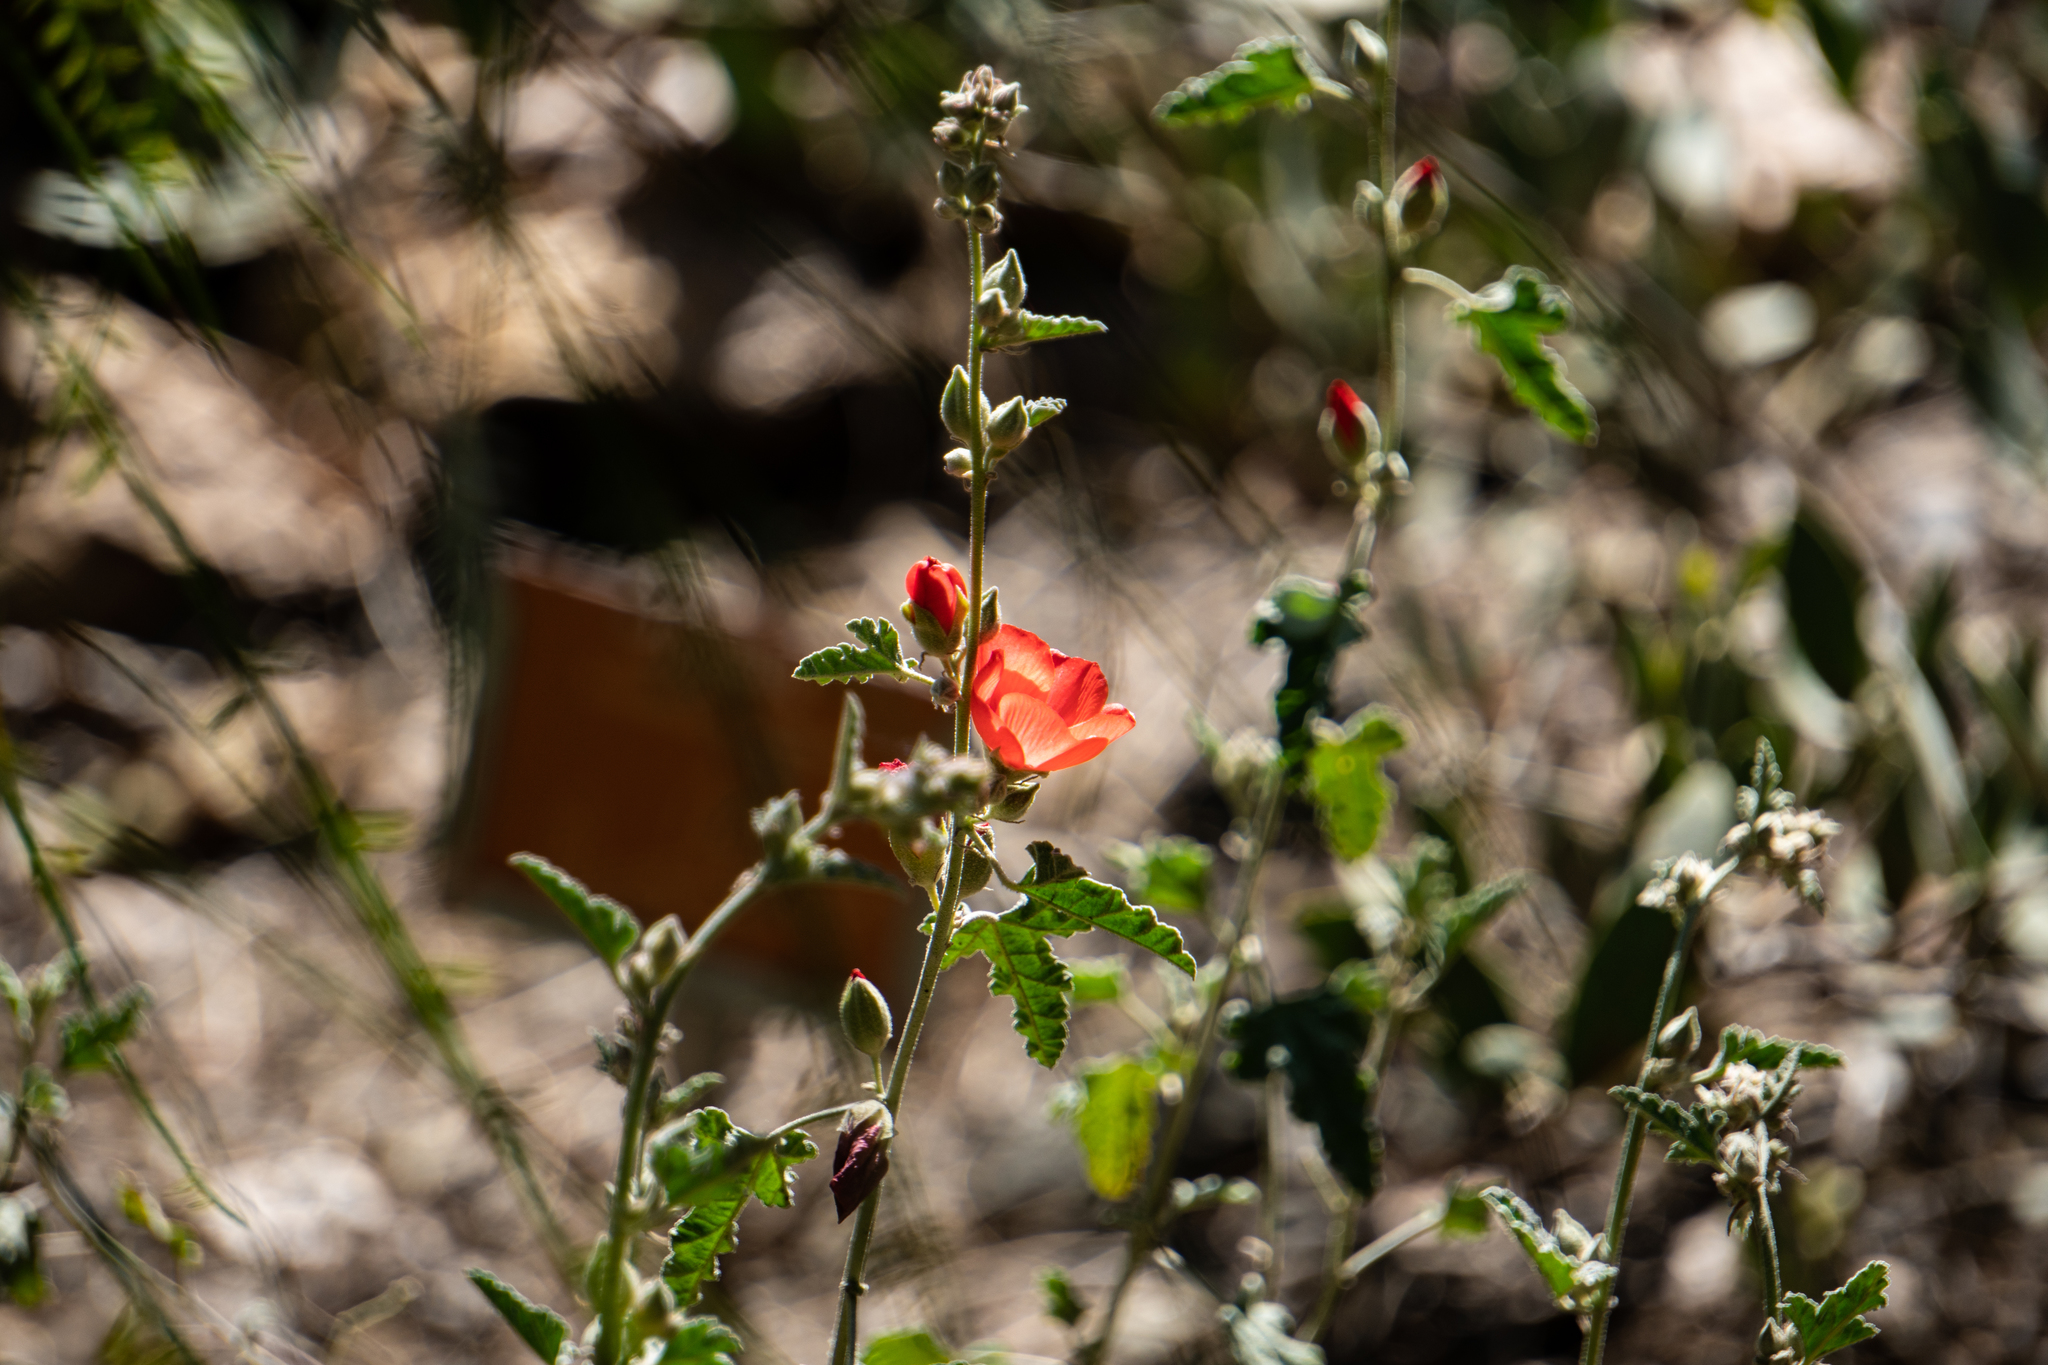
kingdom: Plantae
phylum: Tracheophyta
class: Magnoliopsida
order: Malvales
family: Malvaceae
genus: Sphaeralcea
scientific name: Sphaeralcea ambigua
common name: Apricot globe-mallow
